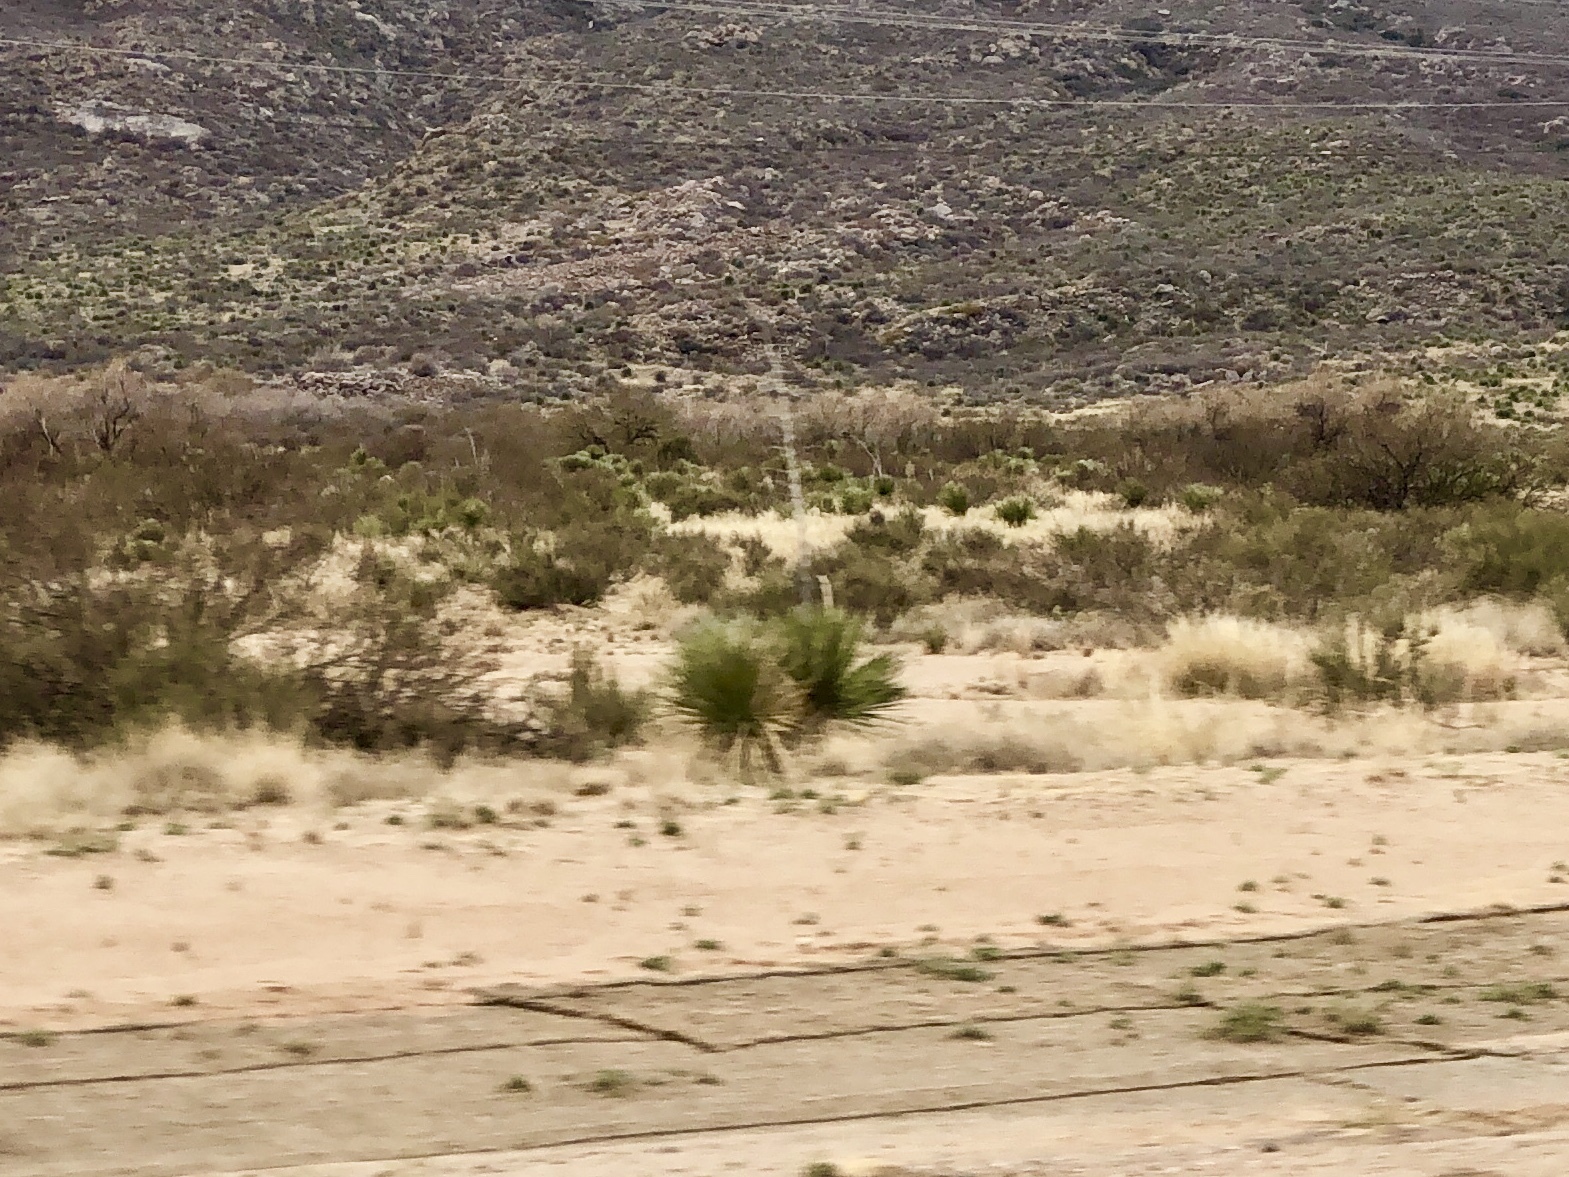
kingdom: Plantae
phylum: Tracheophyta
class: Liliopsida
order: Asparagales
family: Asparagaceae
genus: Yucca
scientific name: Yucca elata
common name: Palmella
